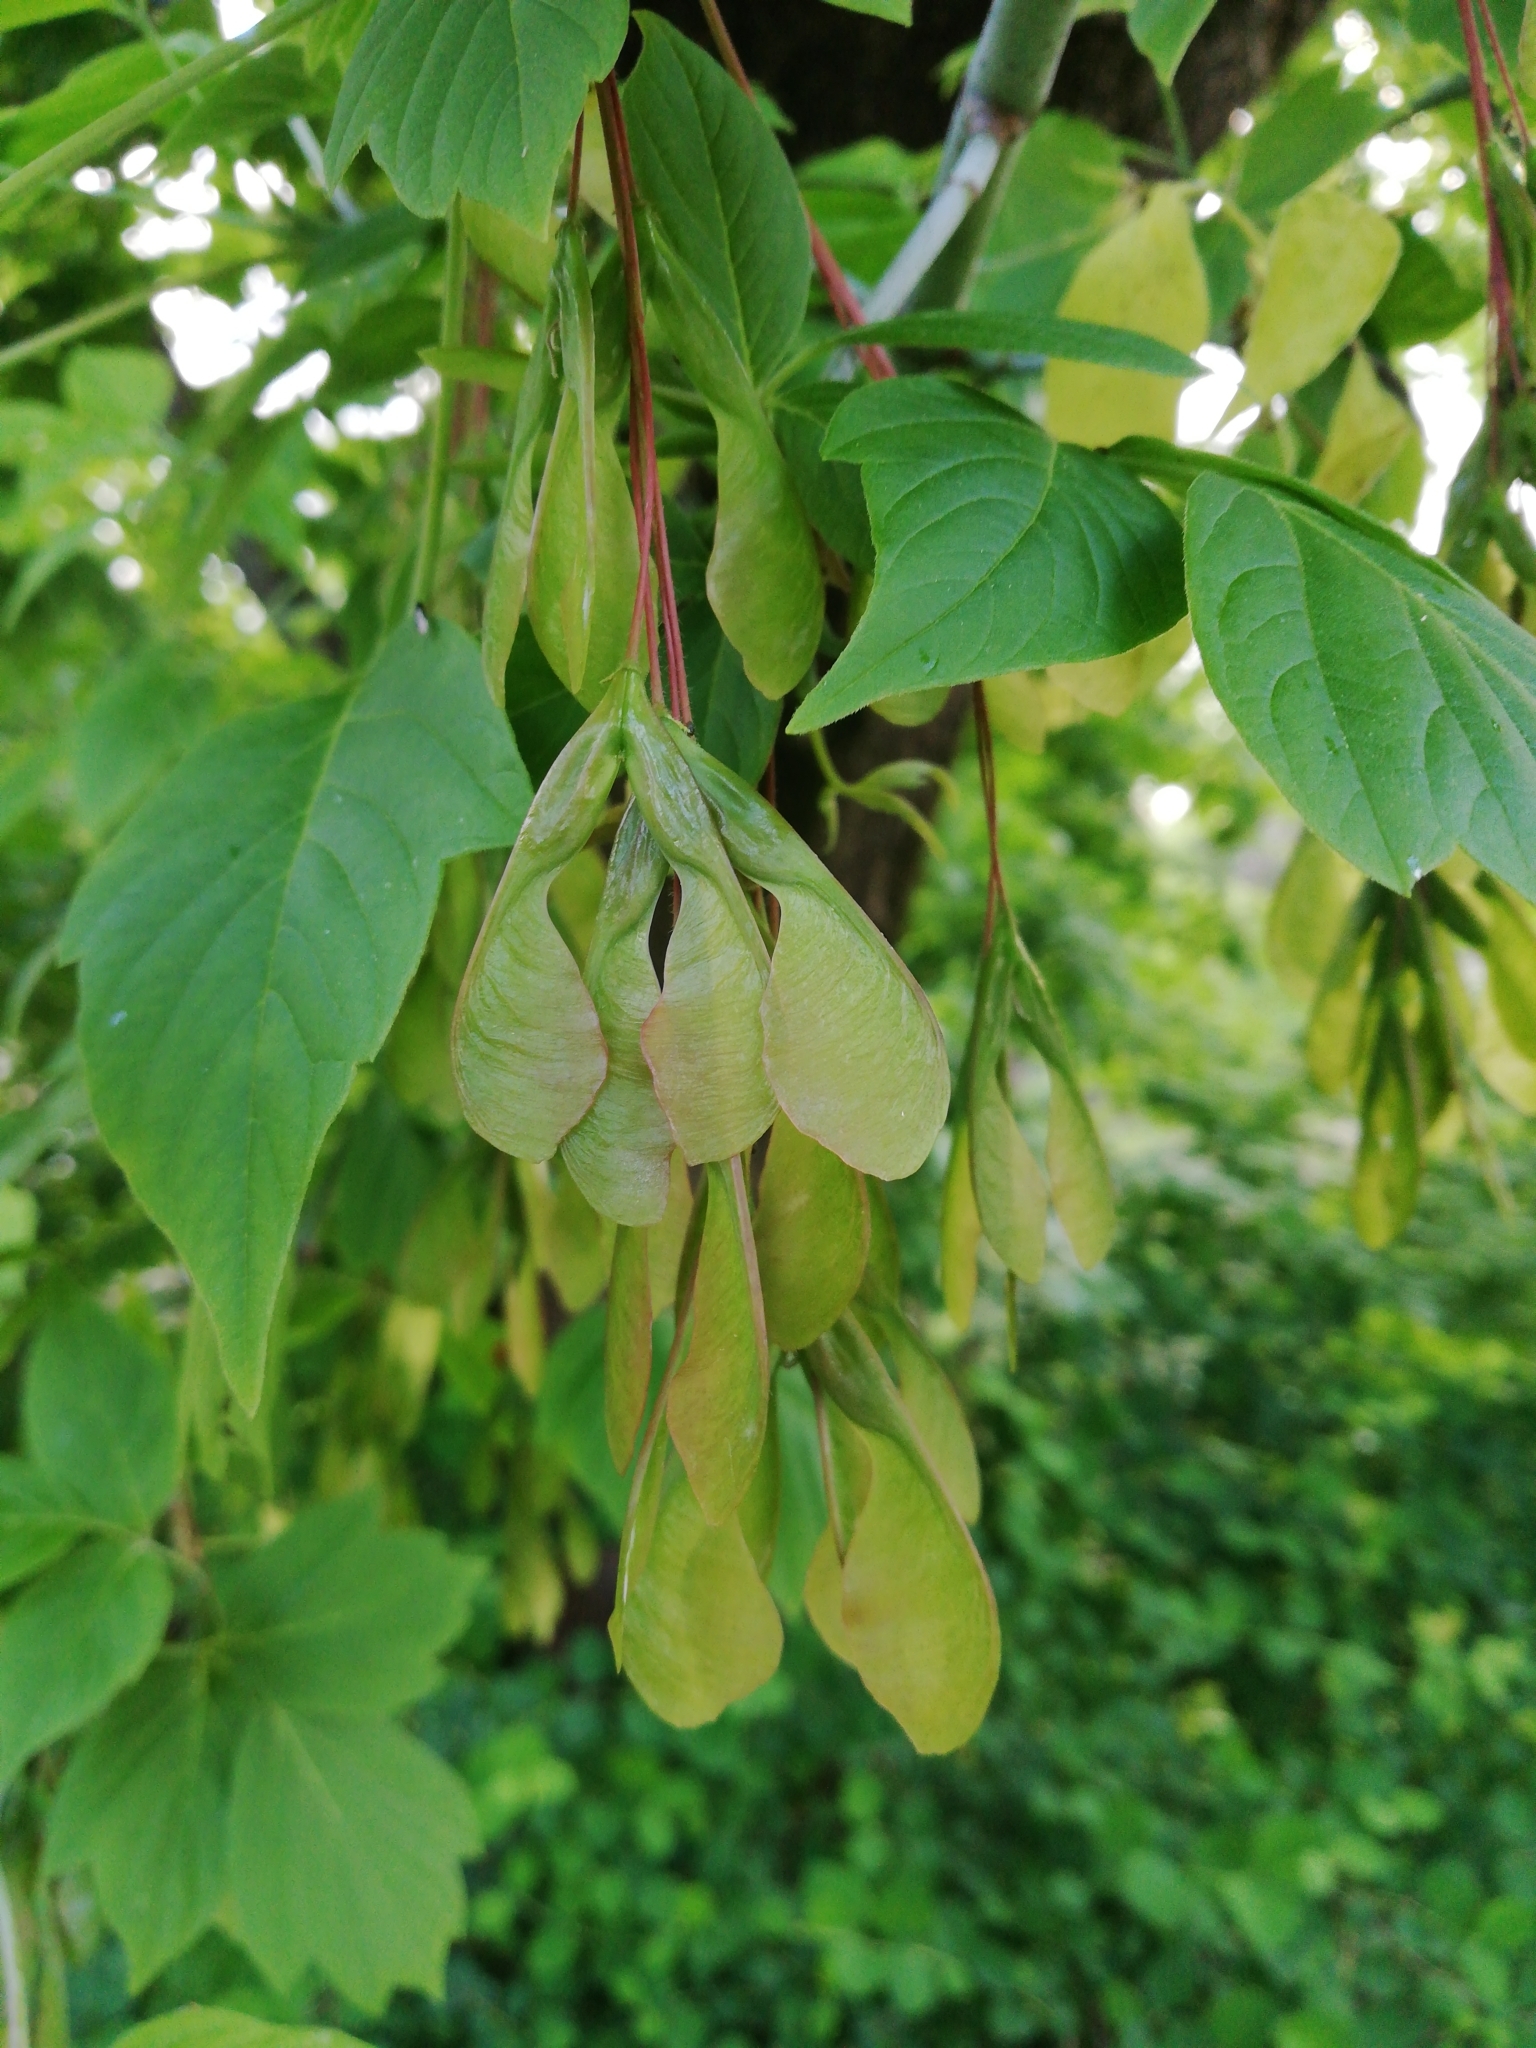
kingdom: Plantae
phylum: Tracheophyta
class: Magnoliopsida
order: Sapindales
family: Sapindaceae
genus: Acer
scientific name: Acer negundo
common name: Ashleaf maple
